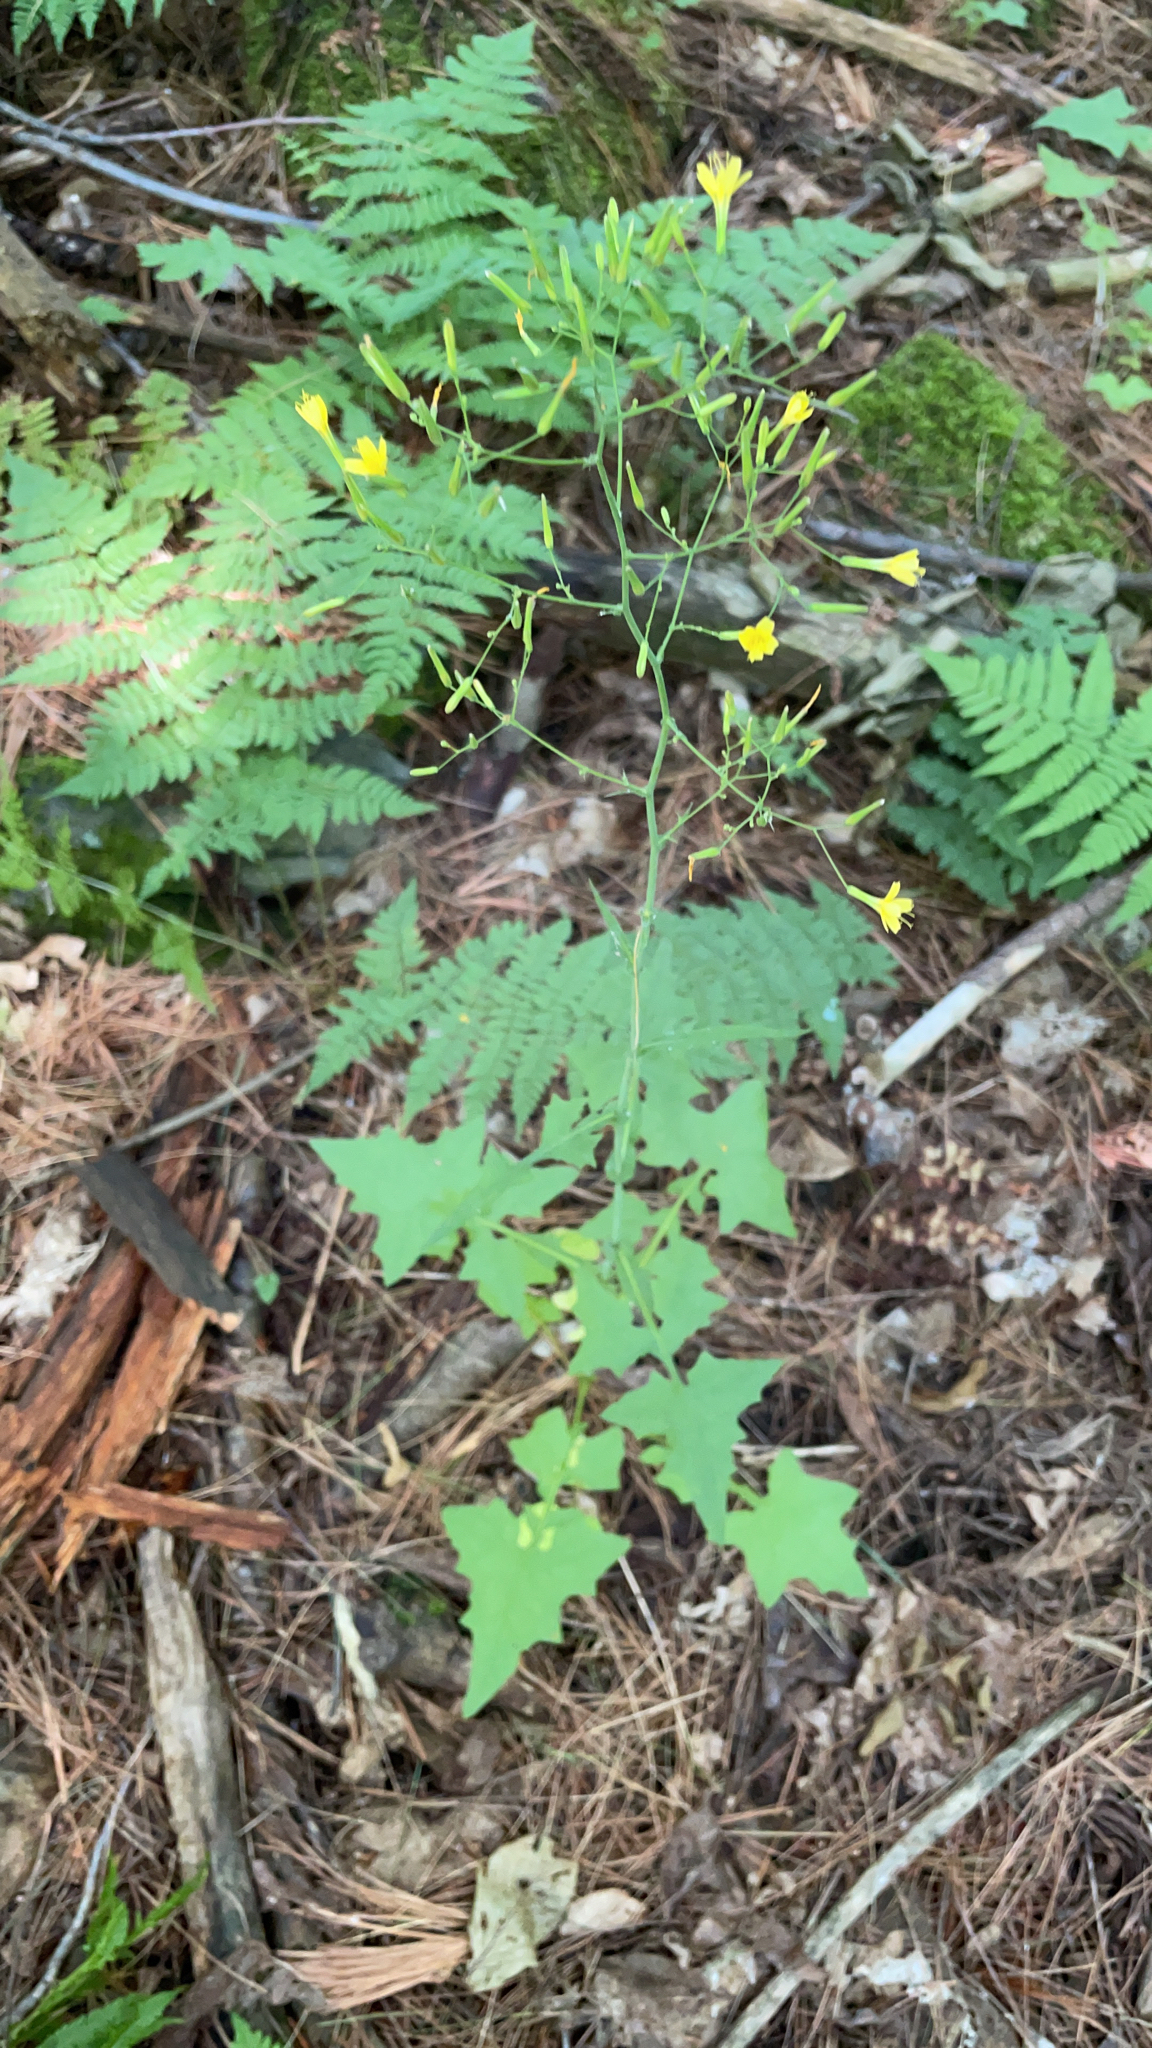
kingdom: Plantae
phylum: Tracheophyta
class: Magnoliopsida
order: Asterales
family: Asteraceae
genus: Mycelis
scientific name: Mycelis muralis
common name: Wall lettuce
